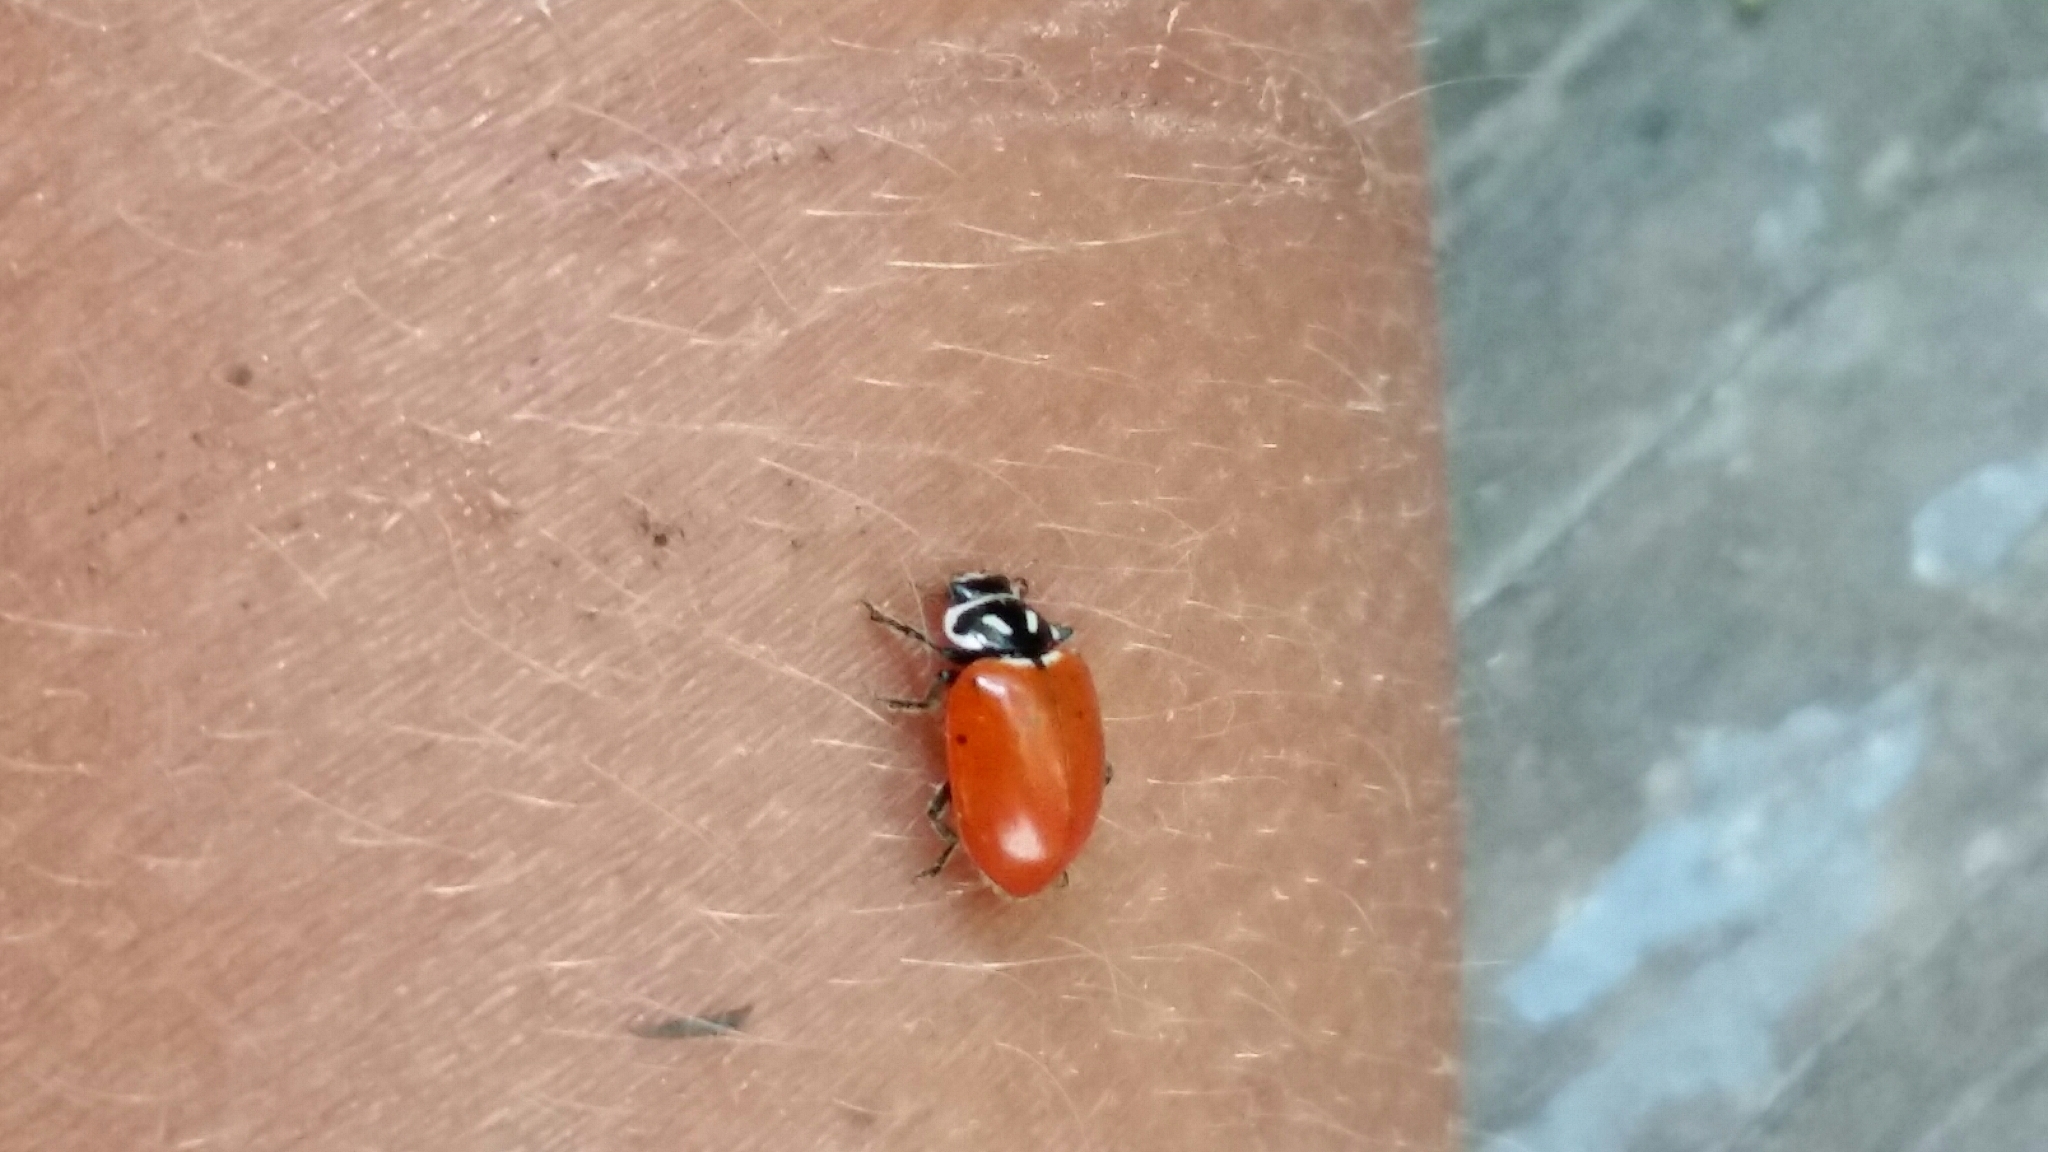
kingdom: Animalia
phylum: Arthropoda
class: Insecta
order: Coleoptera
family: Coccinellidae
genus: Hippodamia
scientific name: Hippodamia convergens
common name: Convergent lady beetle
